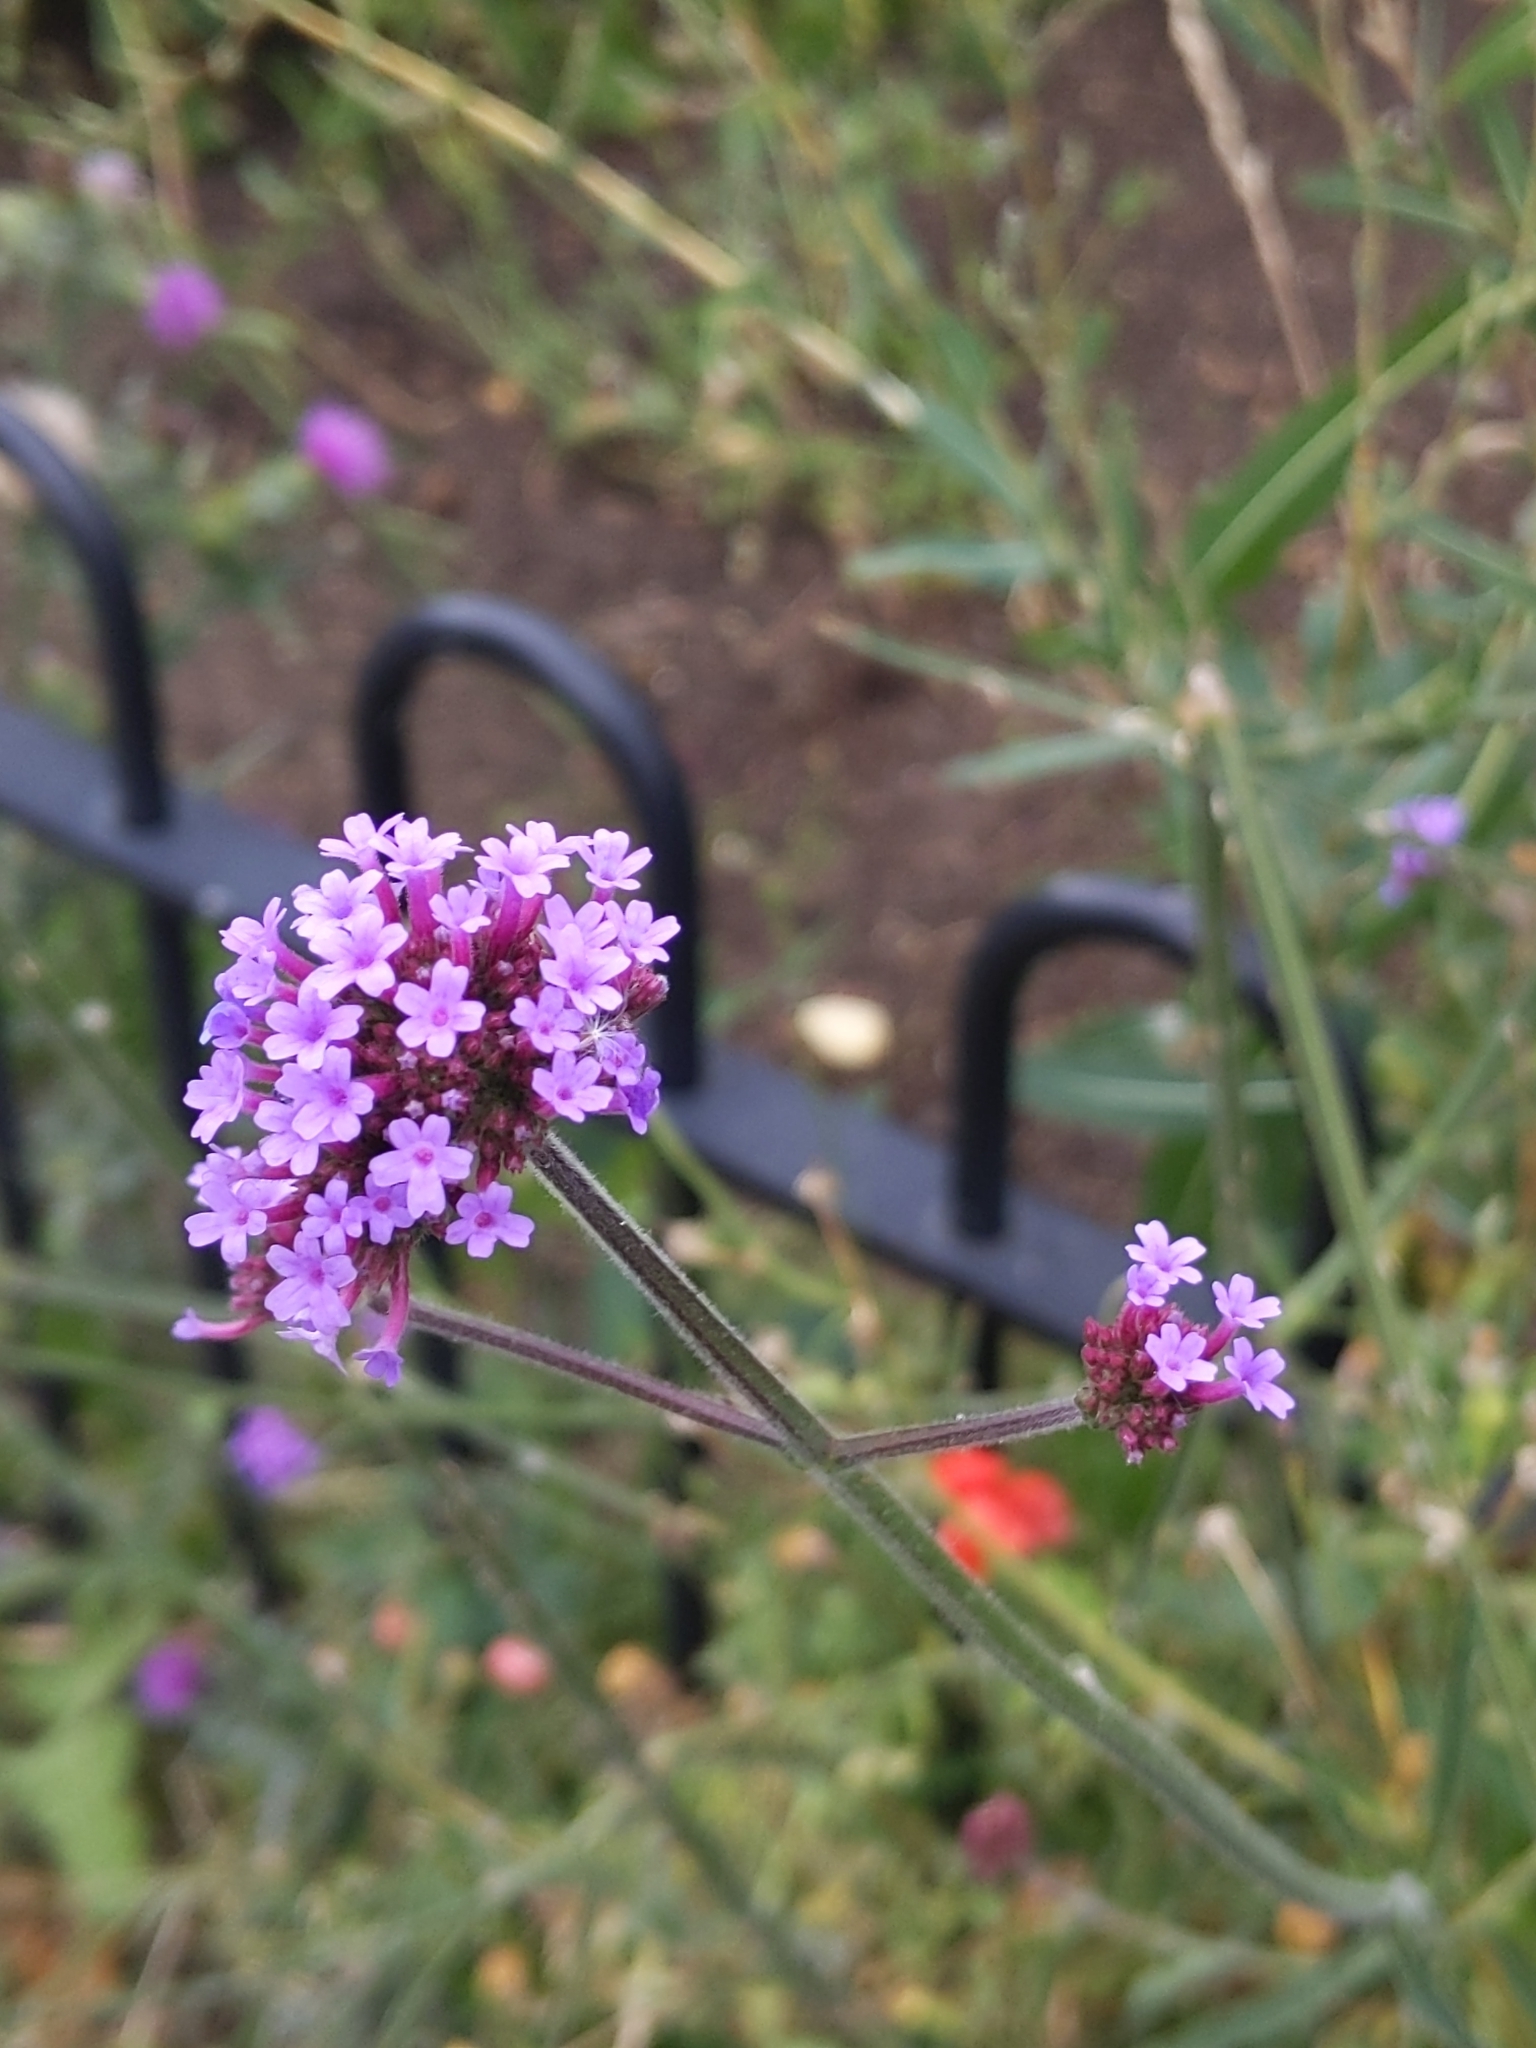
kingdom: Plantae
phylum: Tracheophyta
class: Magnoliopsida
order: Lamiales
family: Verbenaceae
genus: Verbena
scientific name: Verbena bonariensis
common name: Purpletop vervain
